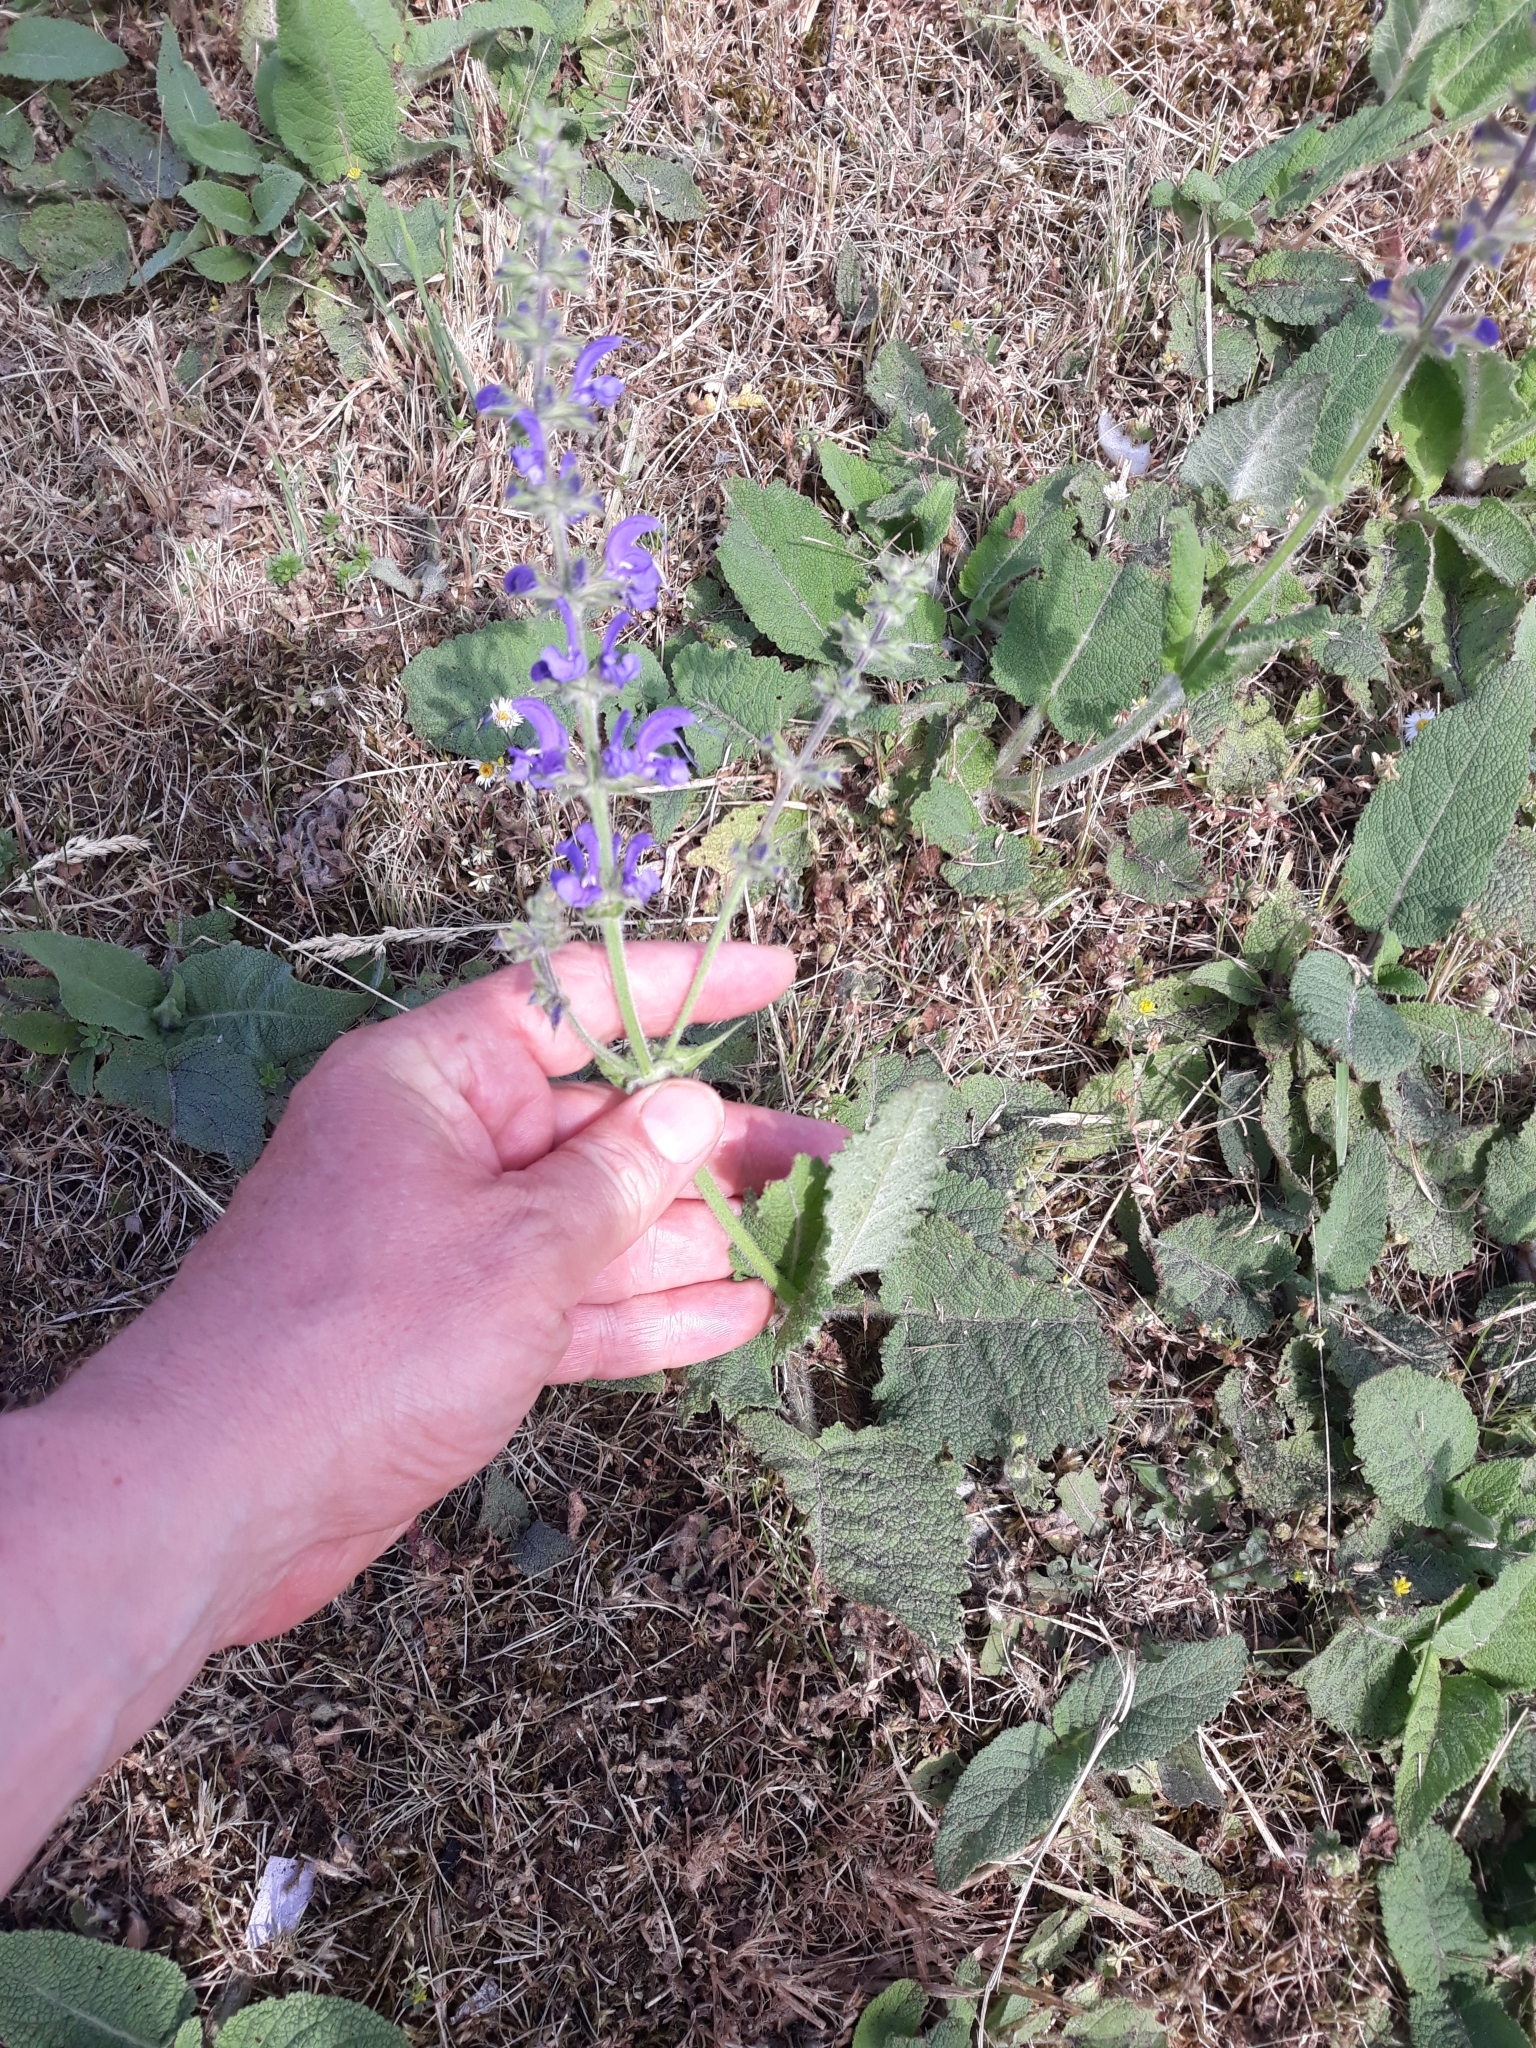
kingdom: Plantae
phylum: Tracheophyta
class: Magnoliopsida
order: Lamiales
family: Lamiaceae
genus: Salvia
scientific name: Salvia pratensis
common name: Meadow sage
